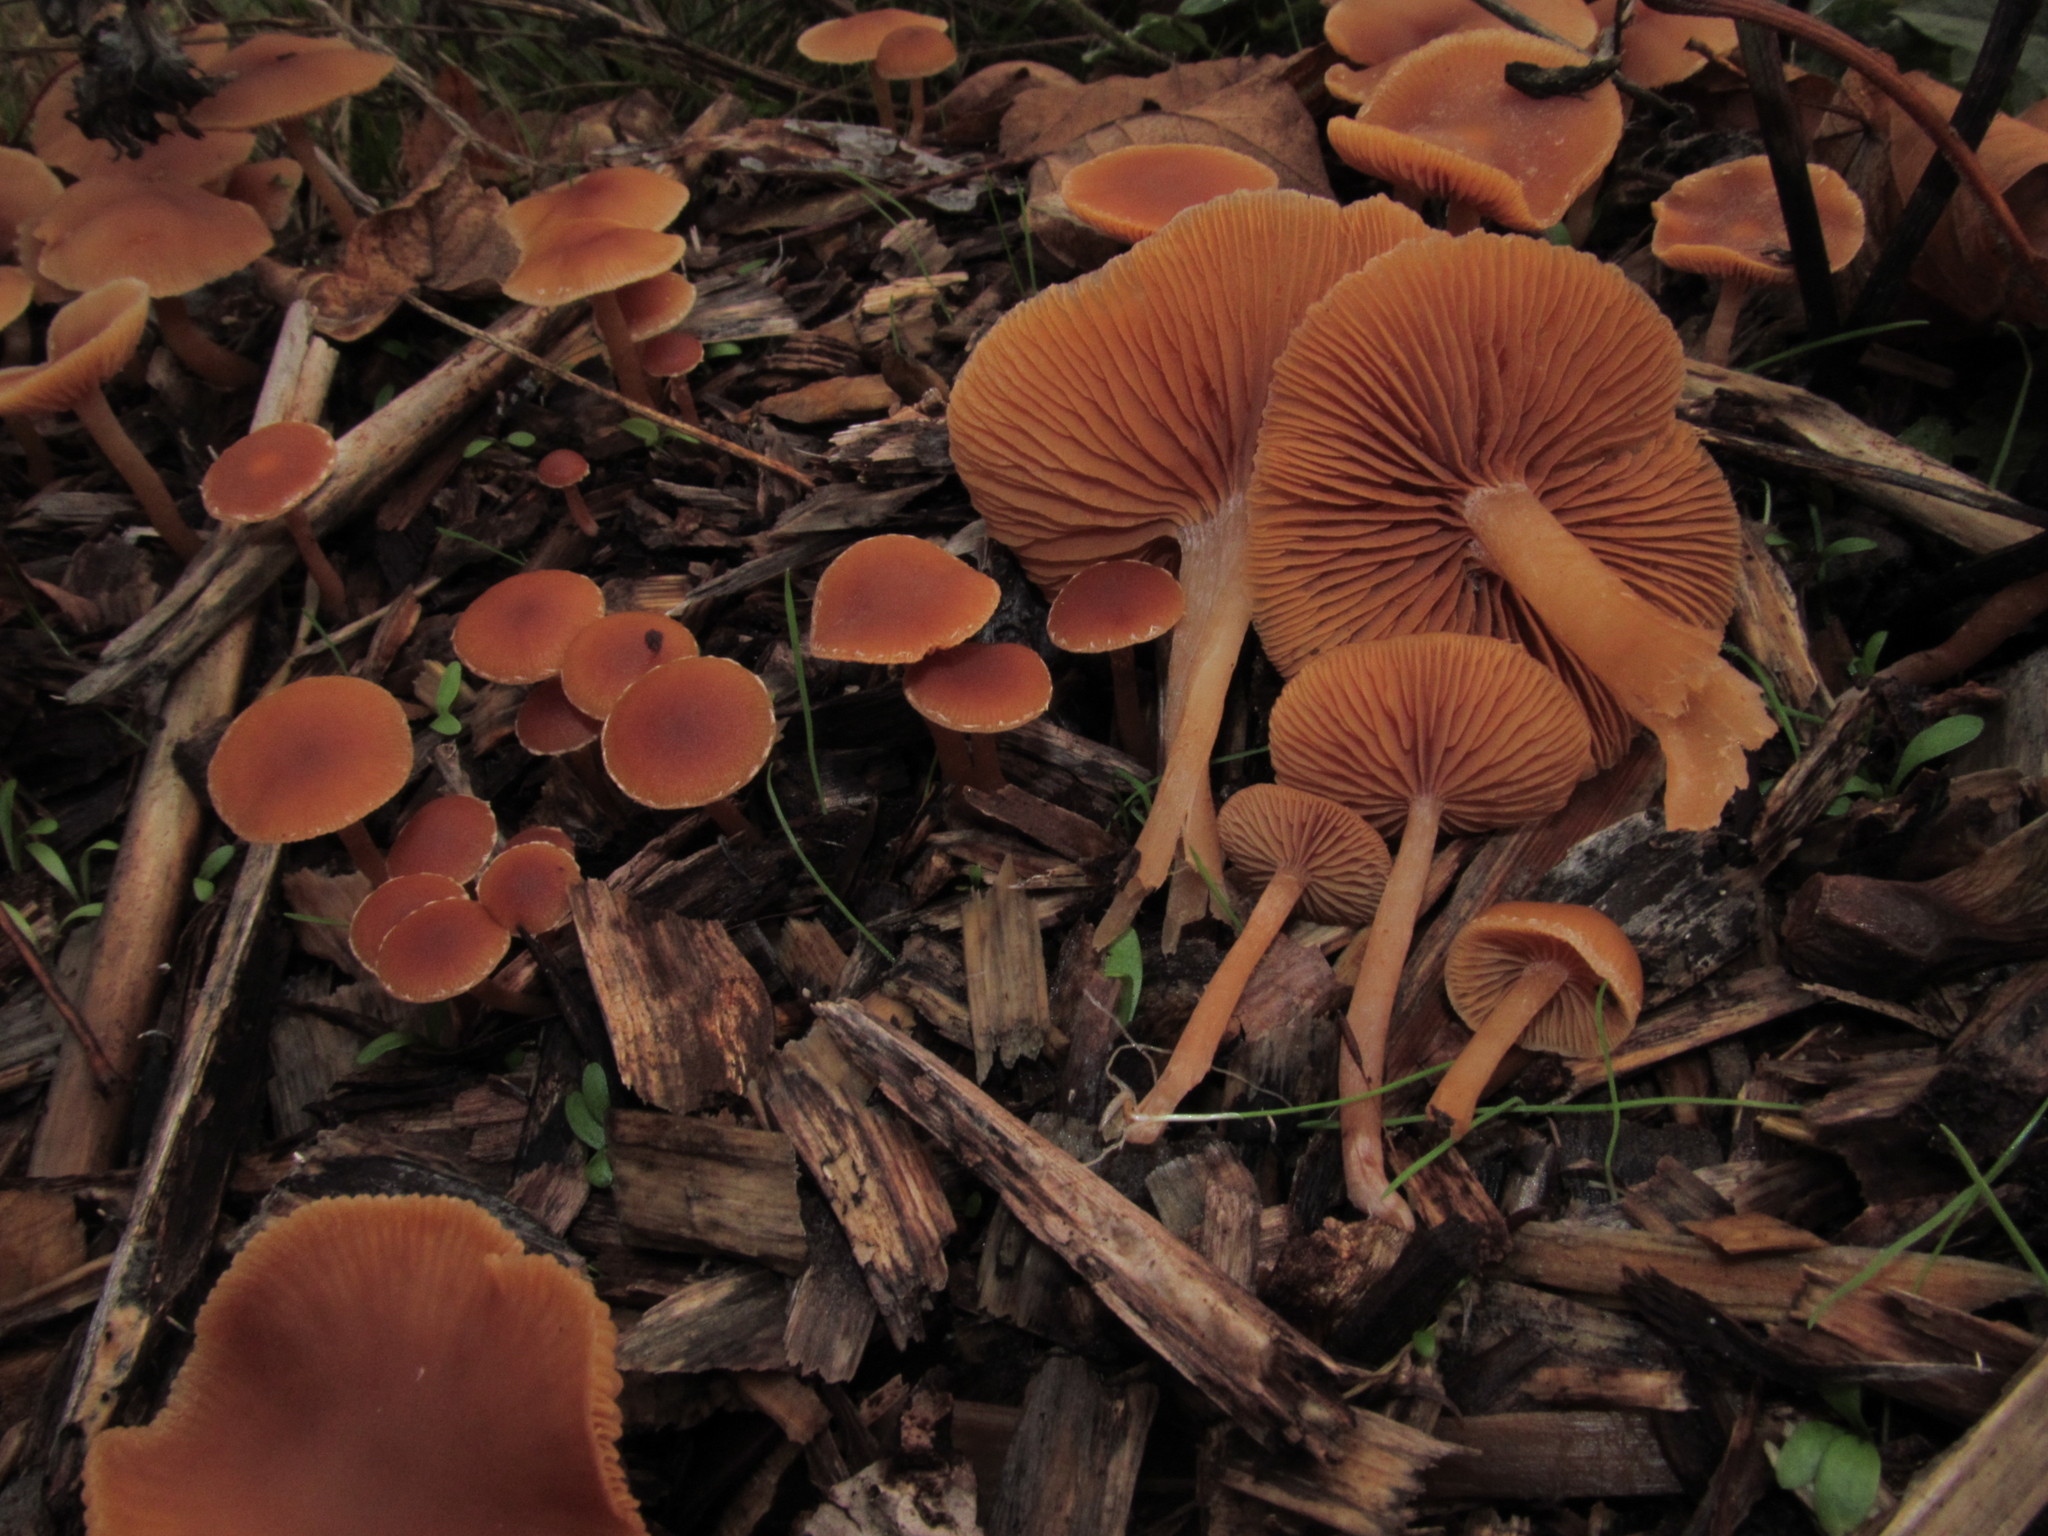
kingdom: Fungi
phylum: Basidiomycota
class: Agaricomycetes
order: Agaricales
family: Tubariaceae
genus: Tubaria
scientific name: Tubaria furfuracea
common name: Scurfy twiglet
